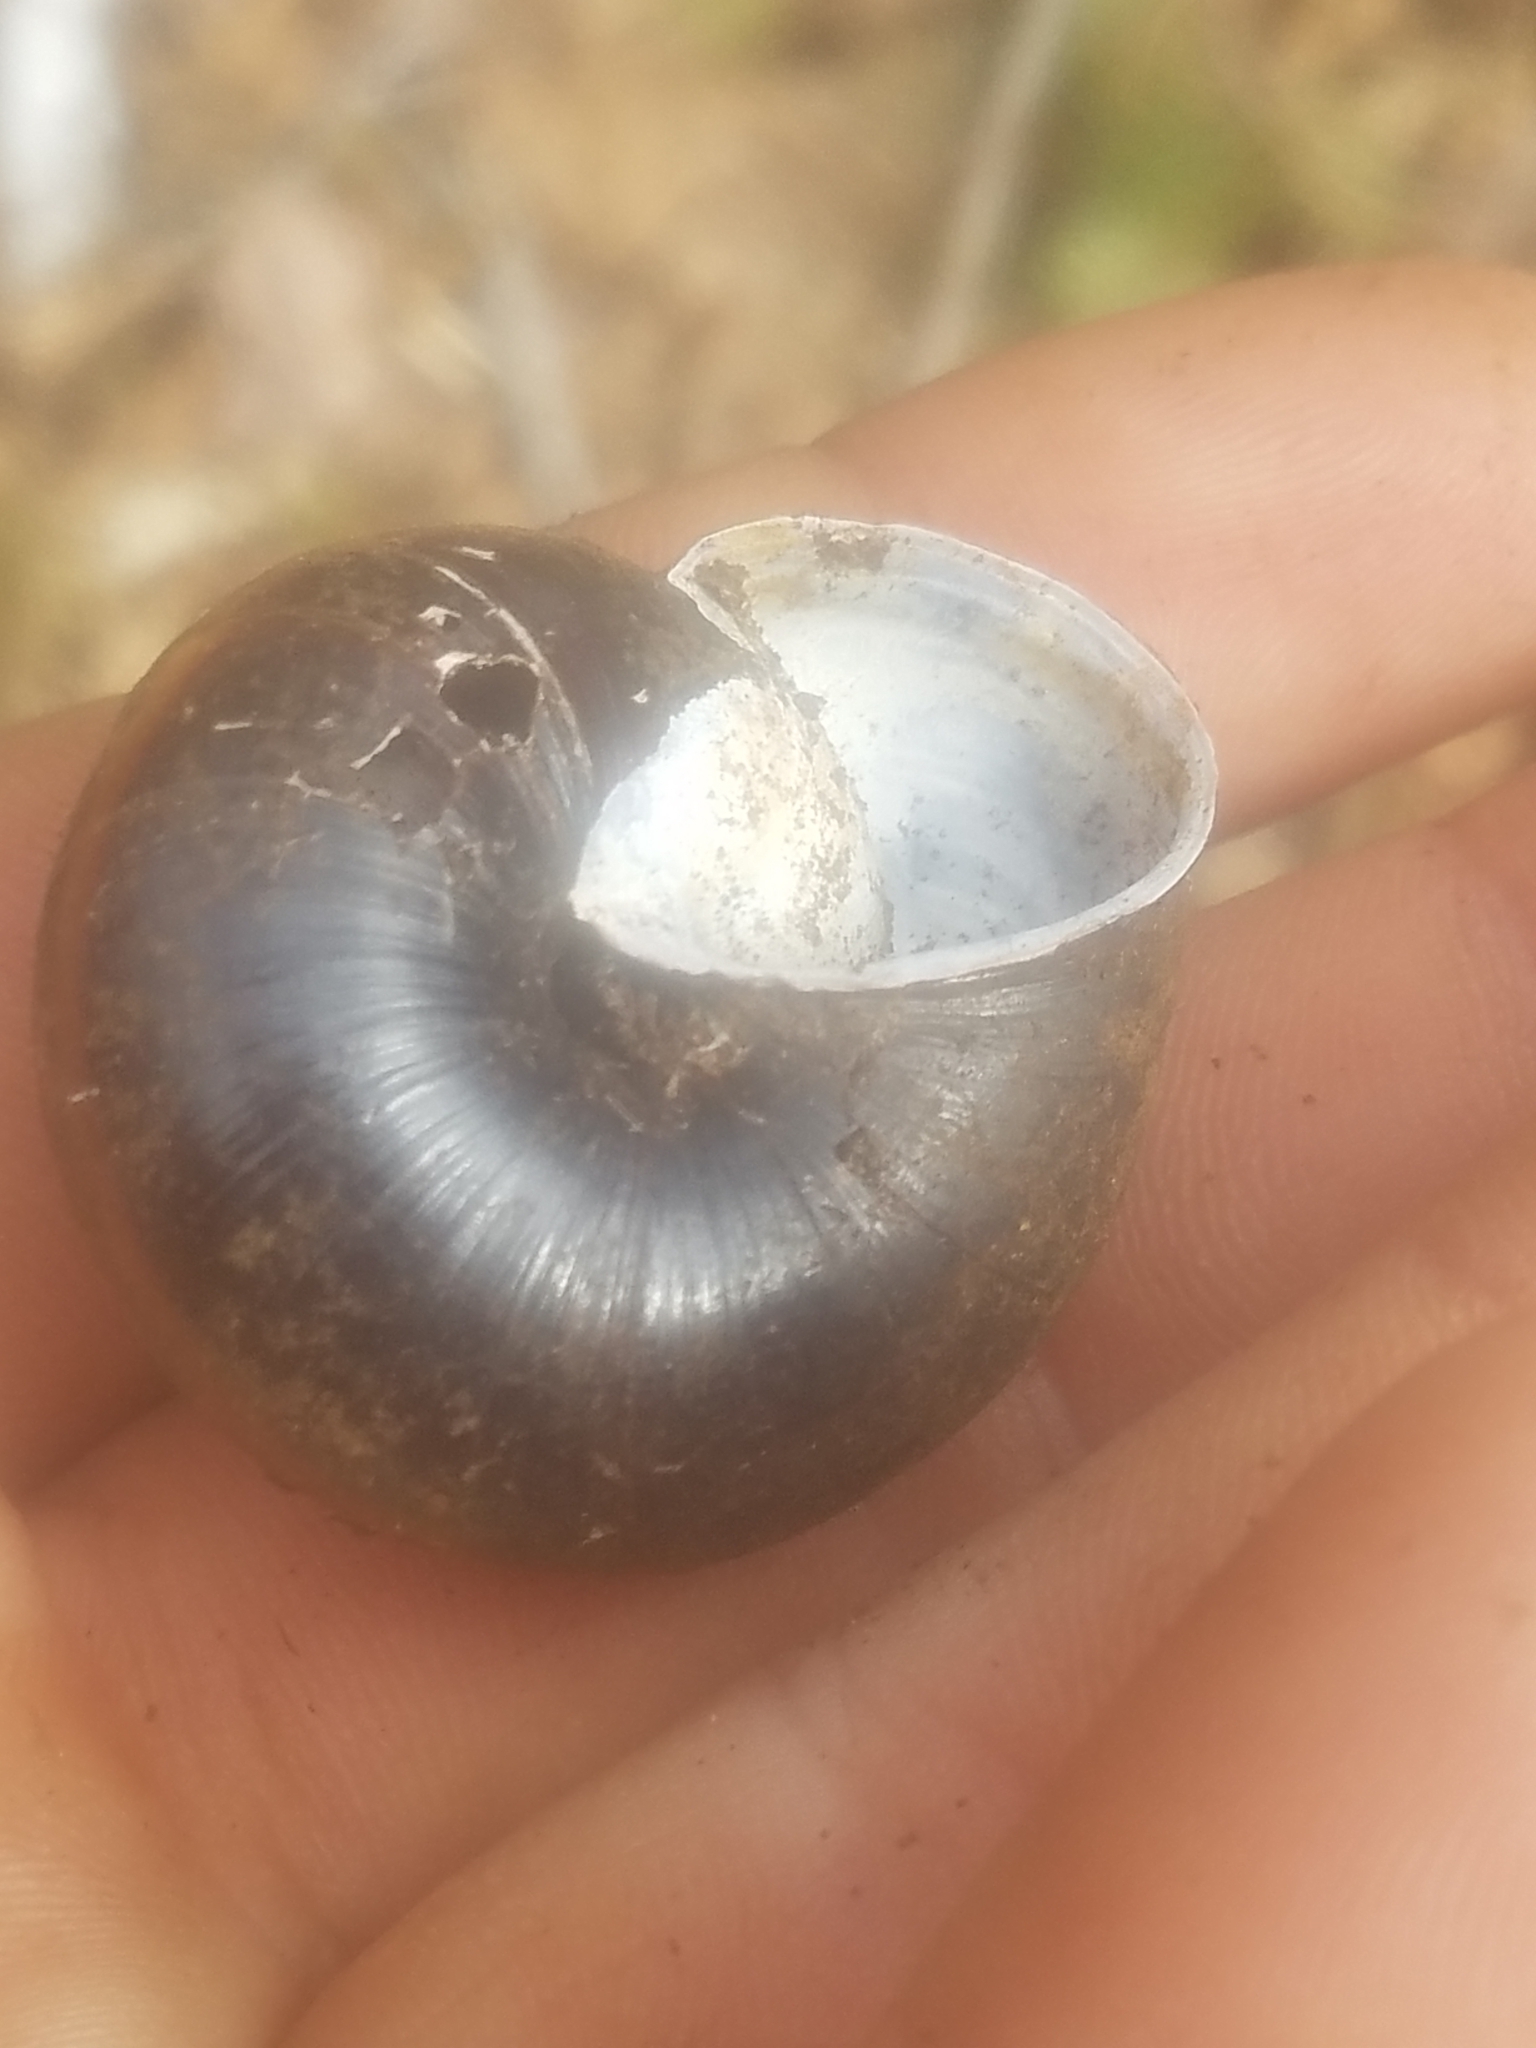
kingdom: Animalia
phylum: Mollusca
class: Gastropoda
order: Stylommatophora
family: Xanthonychidae
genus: Monadenia
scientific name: Monadenia fidelis
